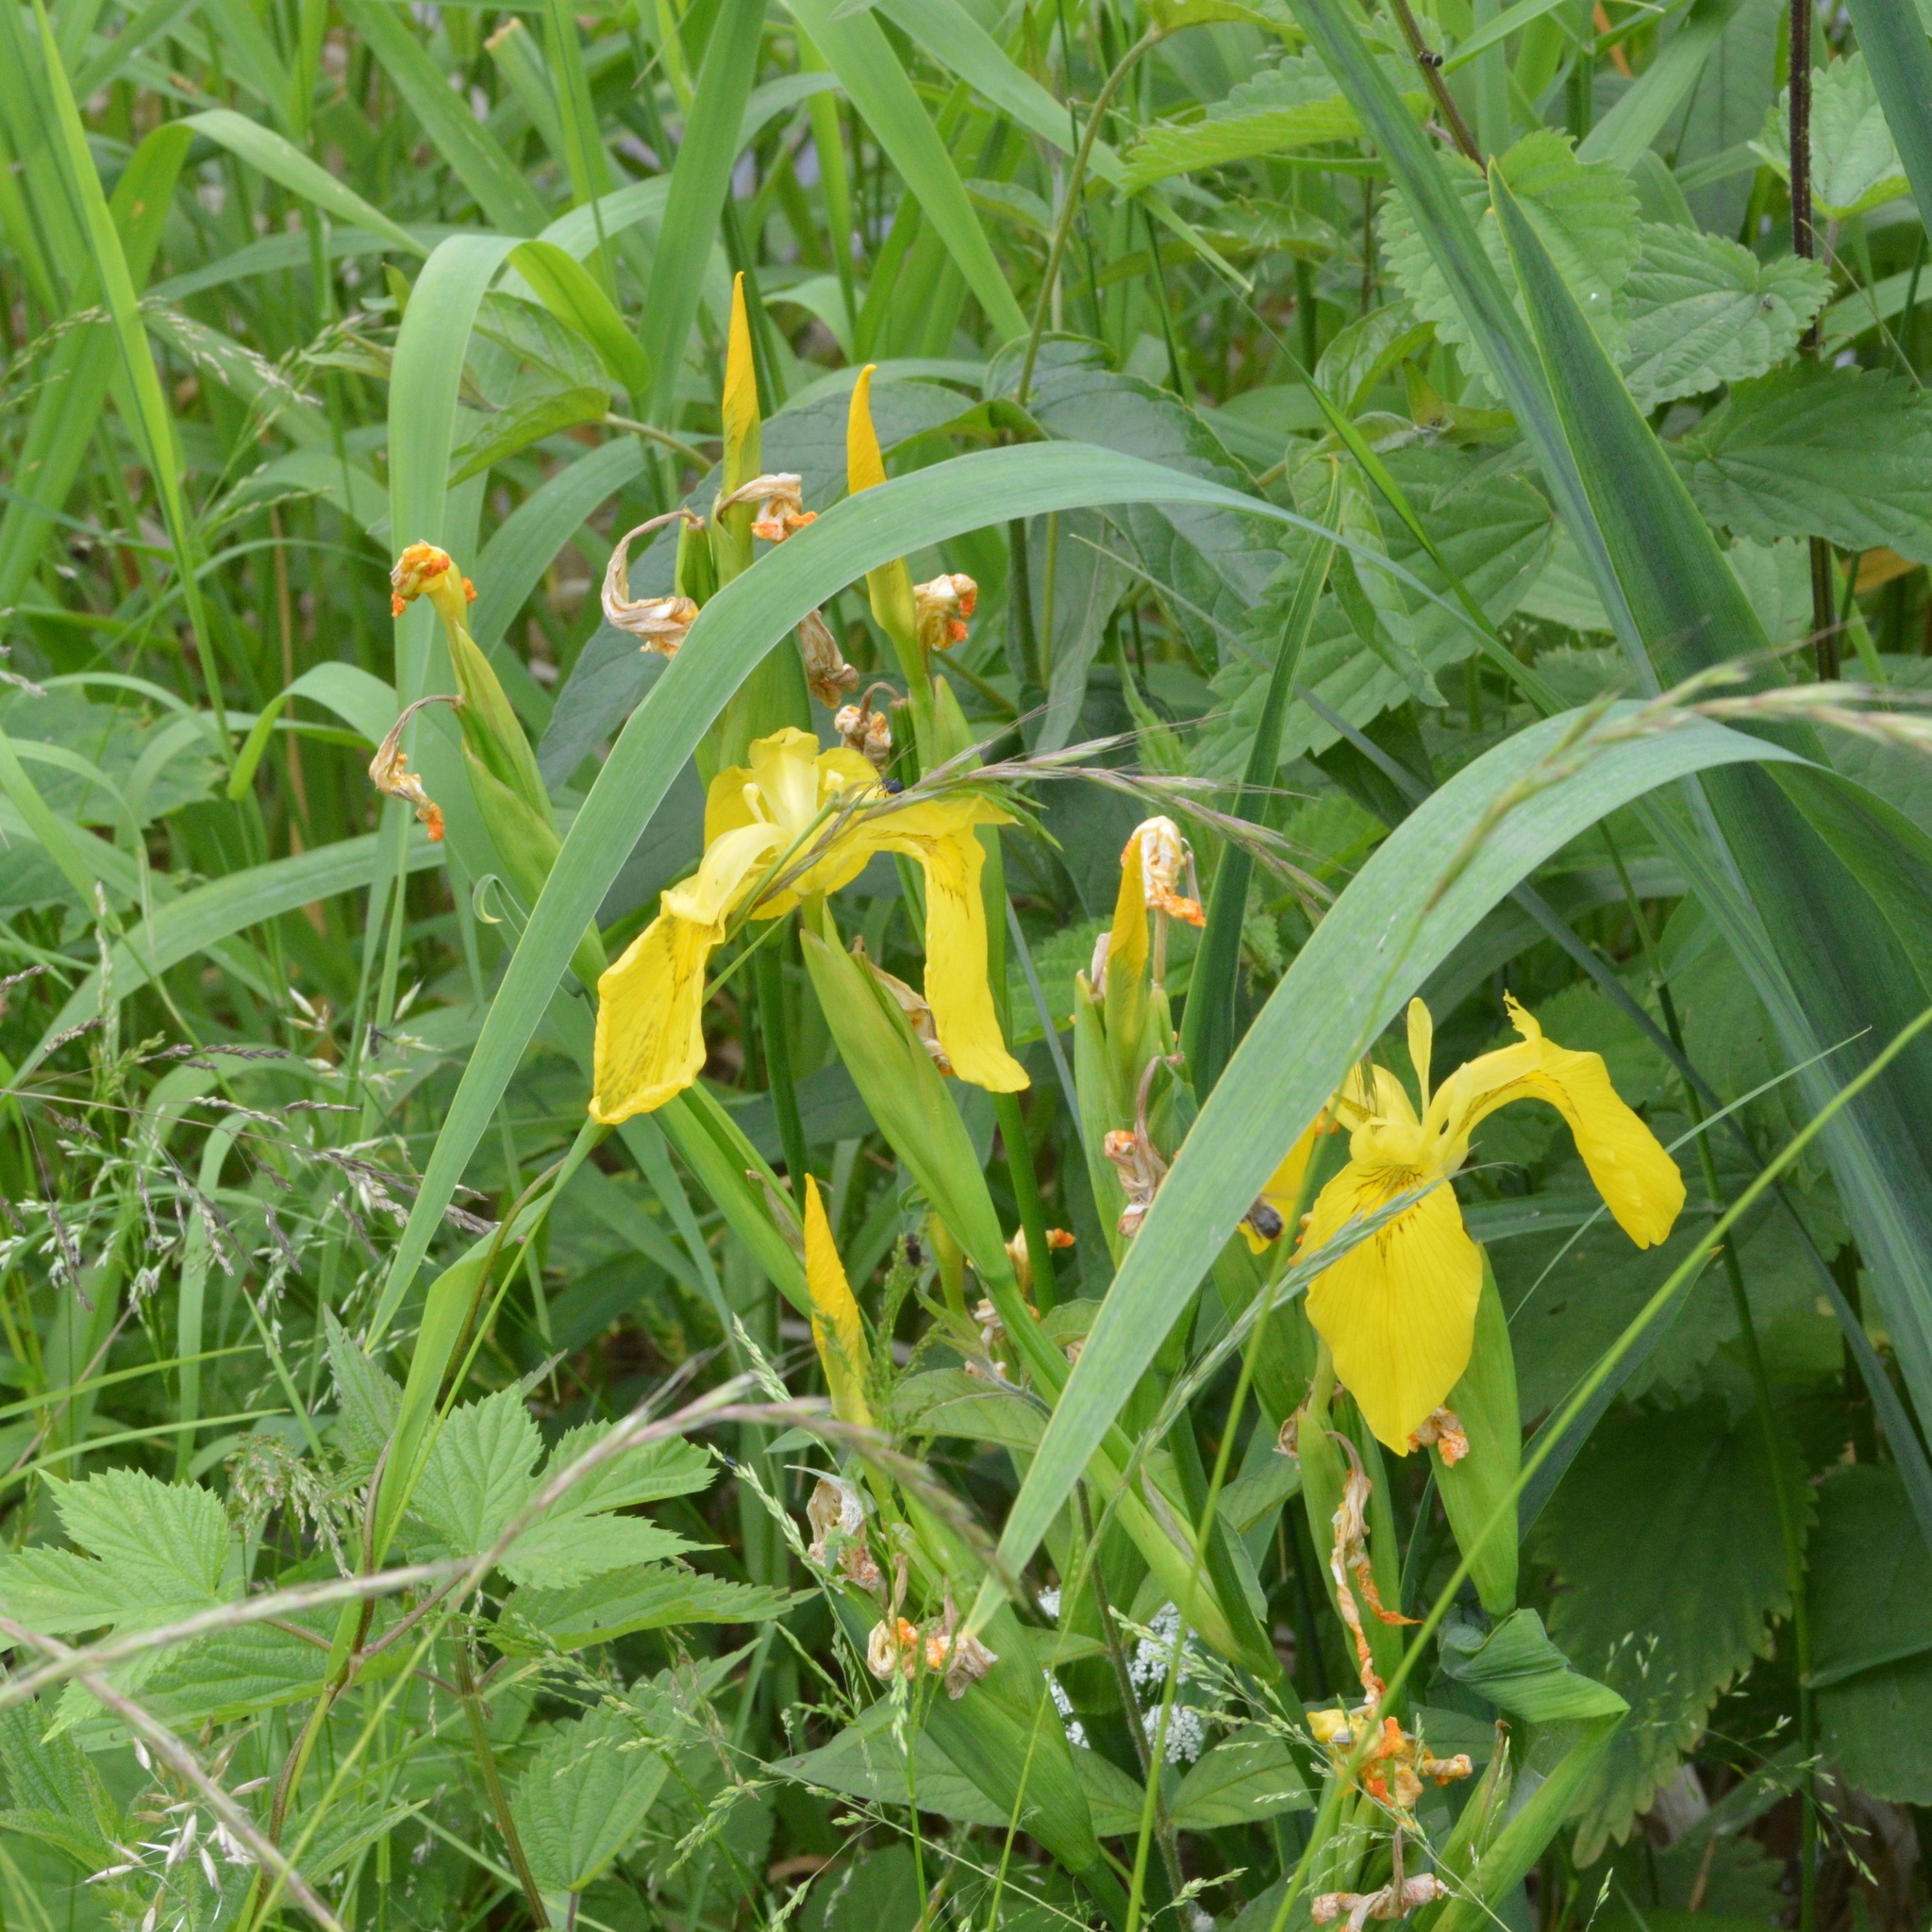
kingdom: Plantae
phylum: Tracheophyta
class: Liliopsida
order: Asparagales
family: Iridaceae
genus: Iris
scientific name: Iris pseudacorus
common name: Yellow flag
